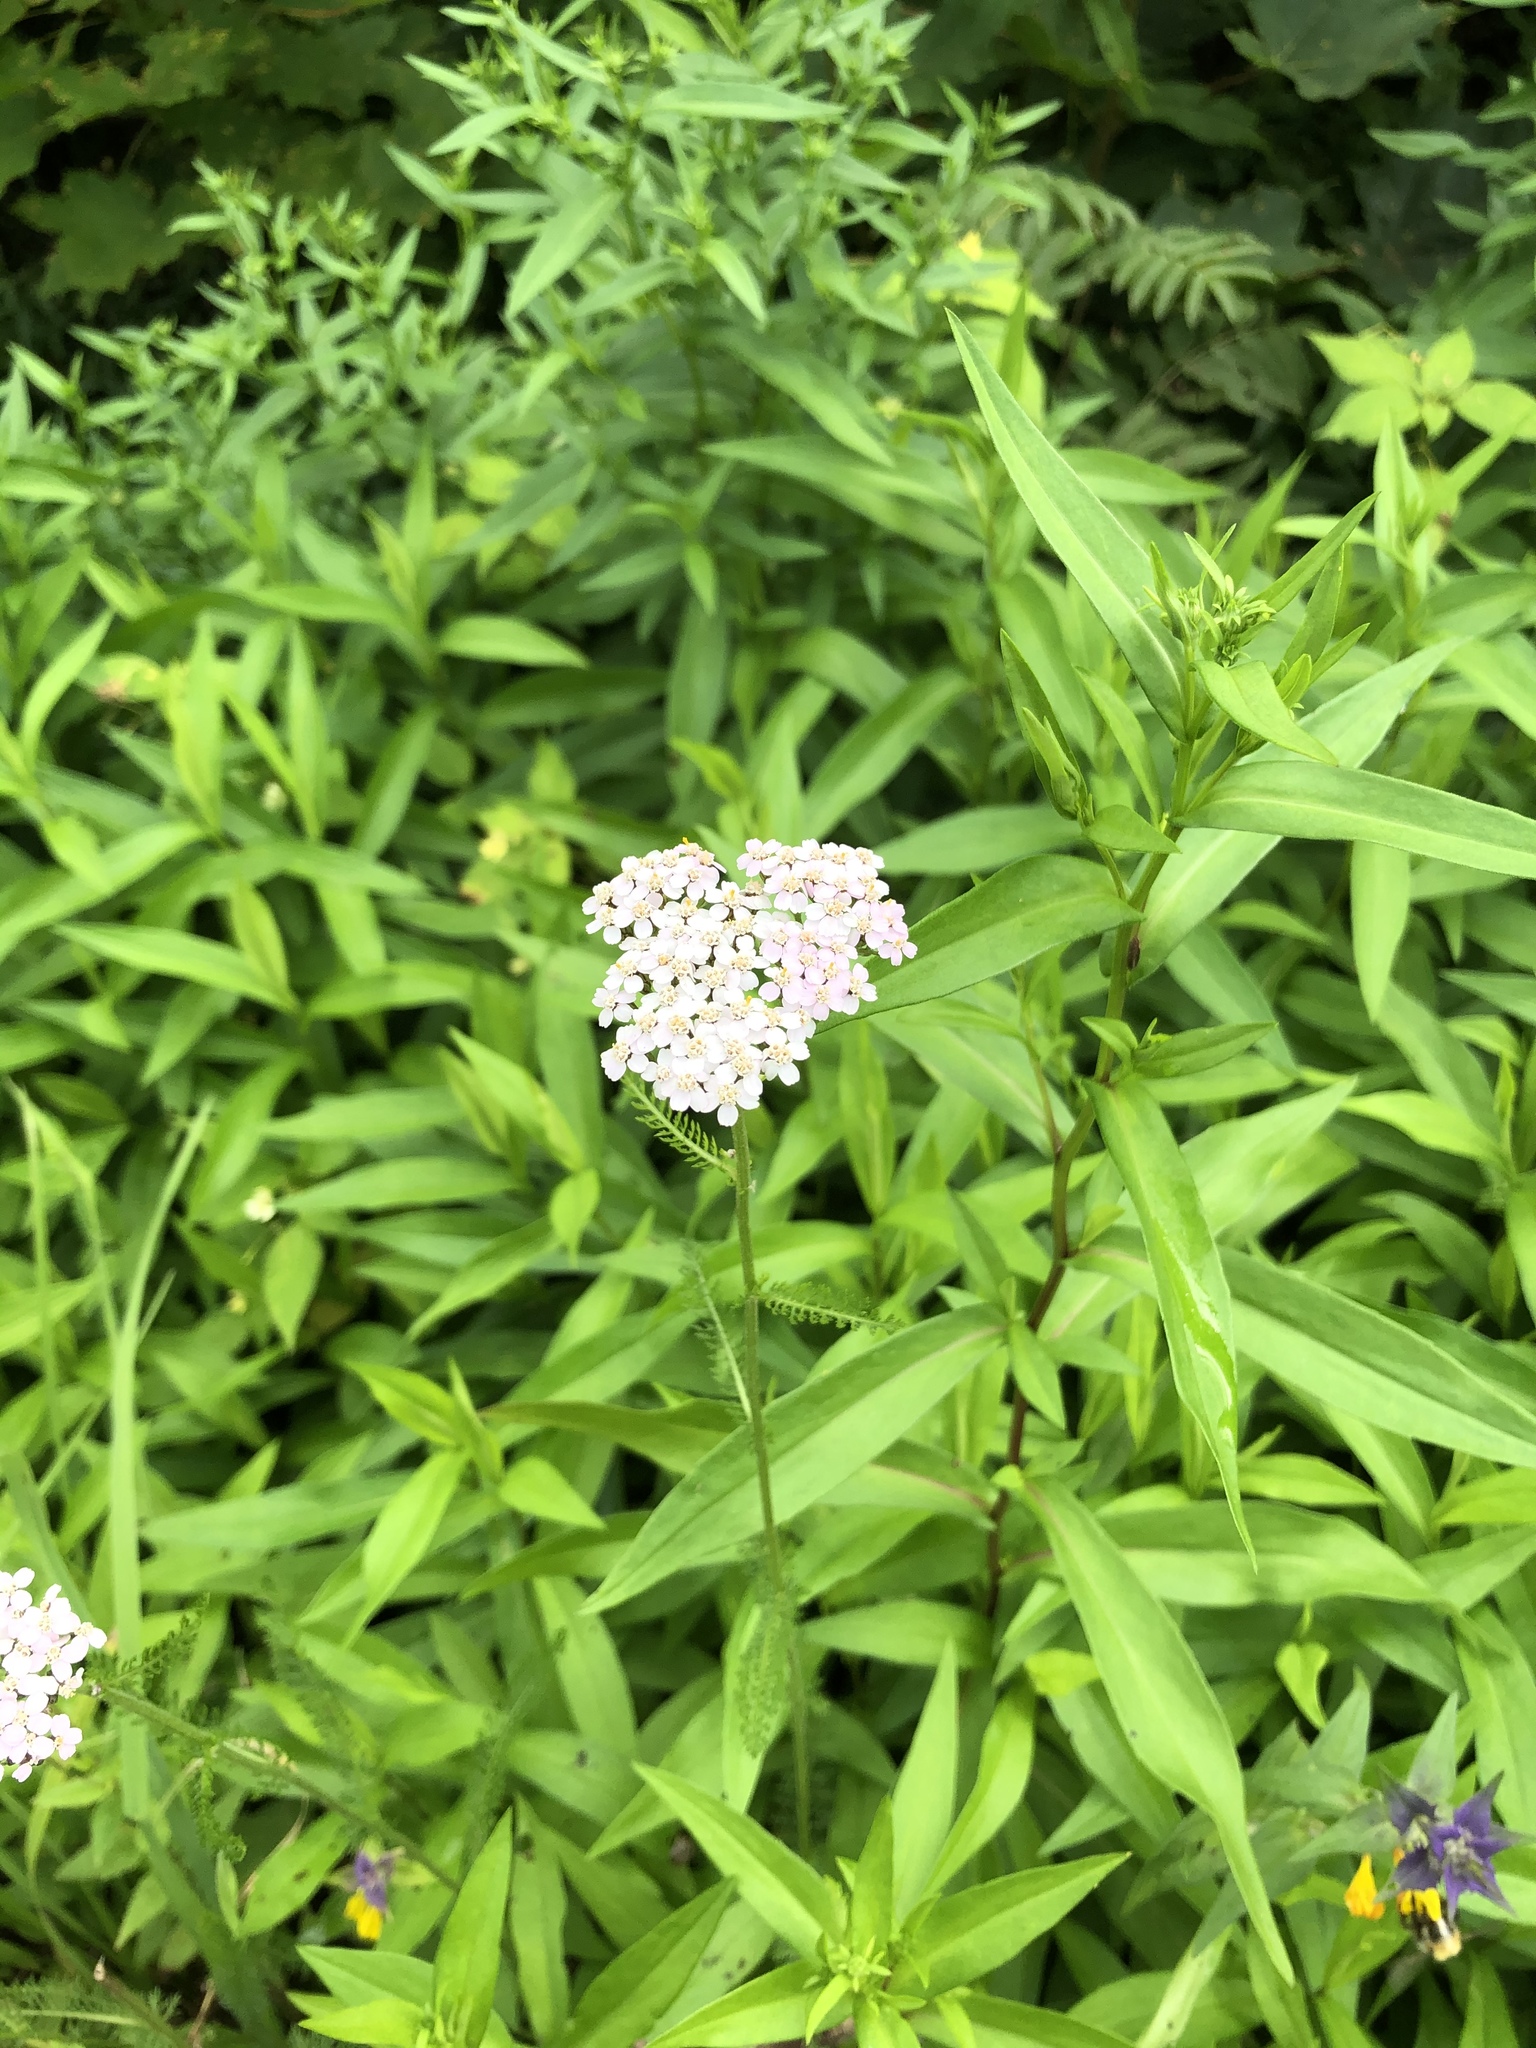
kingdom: Plantae
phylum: Tracheophyta
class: Magnoliopsida
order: Asterales
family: Asteraceae
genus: Achillea
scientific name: Achillea millefolium
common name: Yarrow
